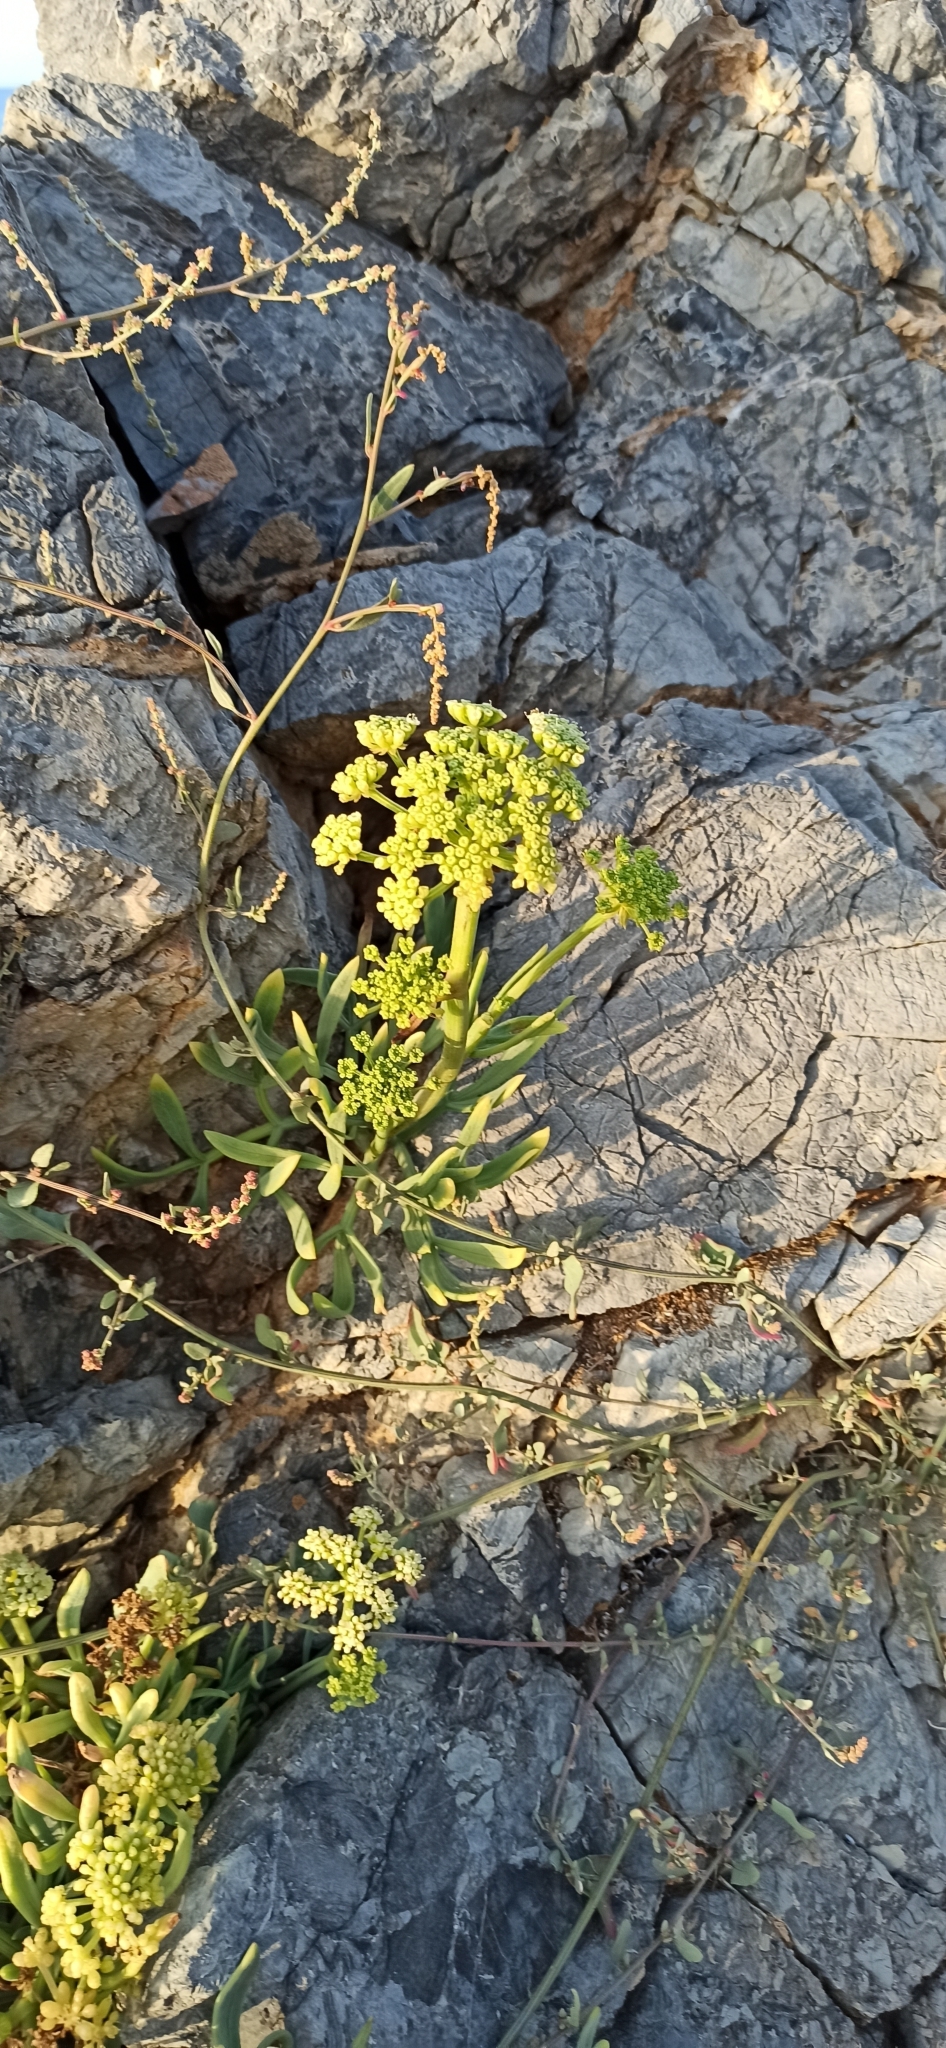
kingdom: Plantae
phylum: Tracheophyta
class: Magnoliopsida
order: Apiales
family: Apiaceae
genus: Crithmum
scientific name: Crithmum maritimum
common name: Rock samphire
